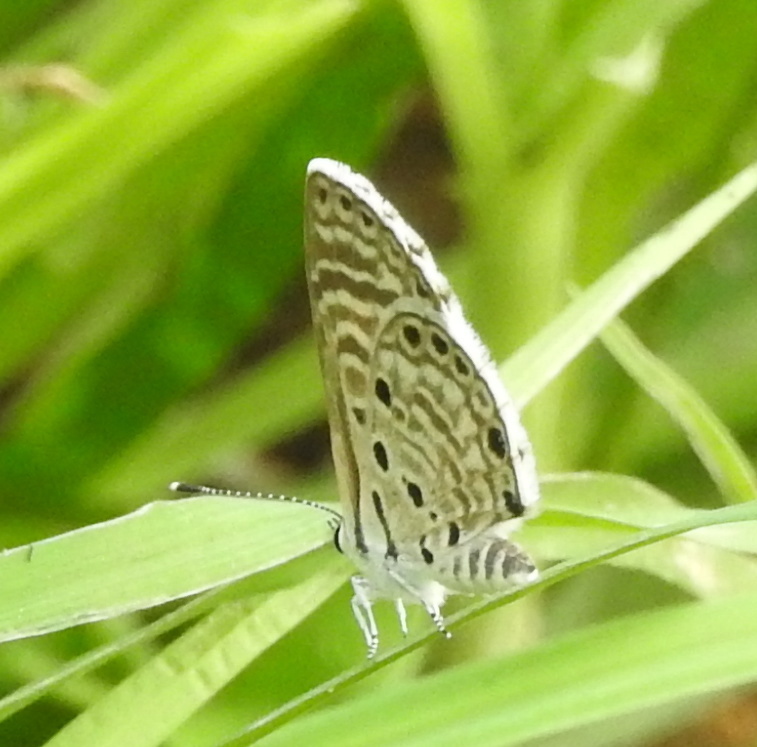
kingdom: Animalia
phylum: Arthropoda
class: Insecta
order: Lepidoptera
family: Lycaenidae
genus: Azanus
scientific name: Azanus jesous
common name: African babul blue
